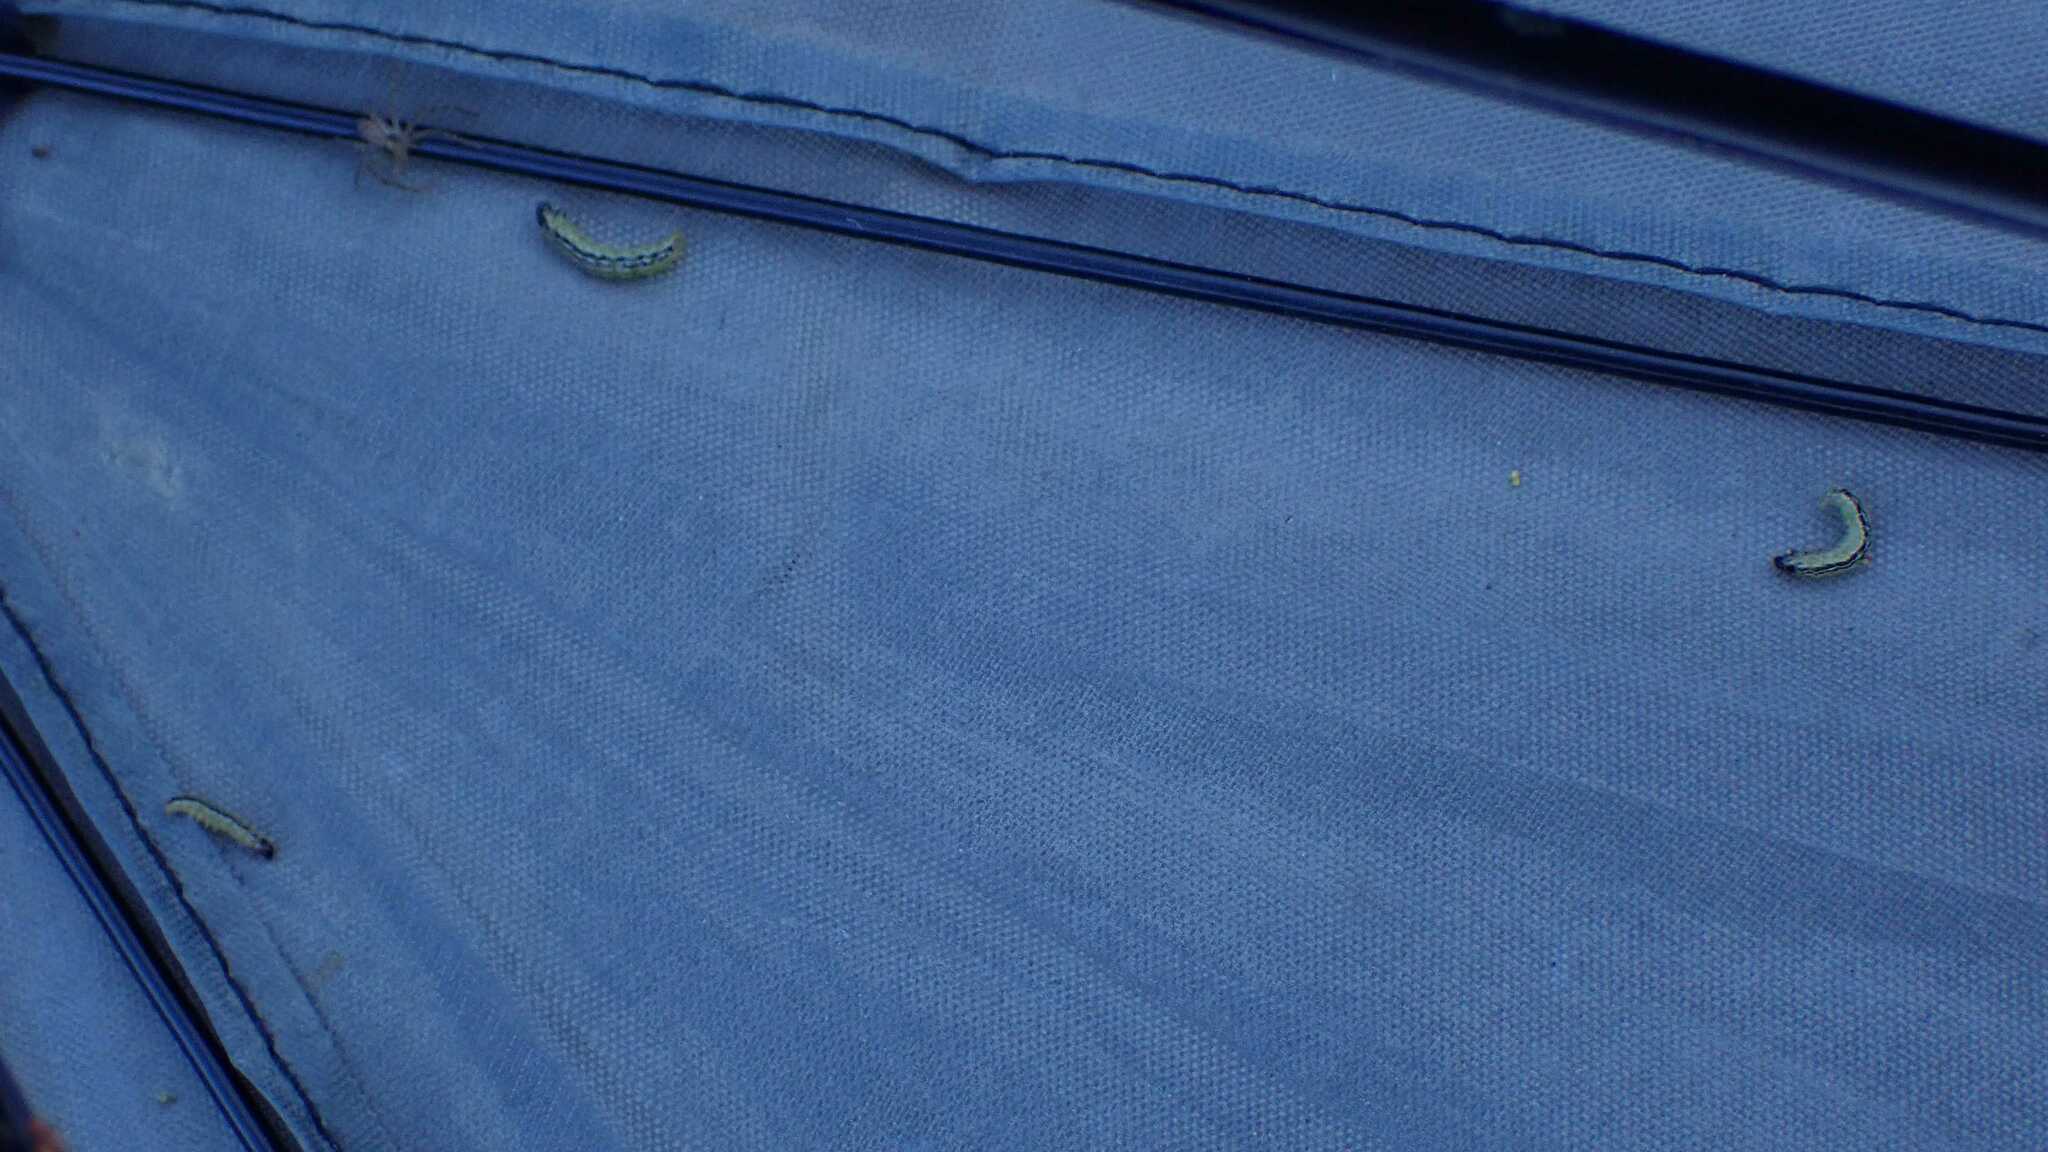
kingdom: Animalia
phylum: Arthropoda
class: Insecta
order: Lepidoptera
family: Crambidae
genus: Cydalima
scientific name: Cydalima perspectalis
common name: Box tree moth
